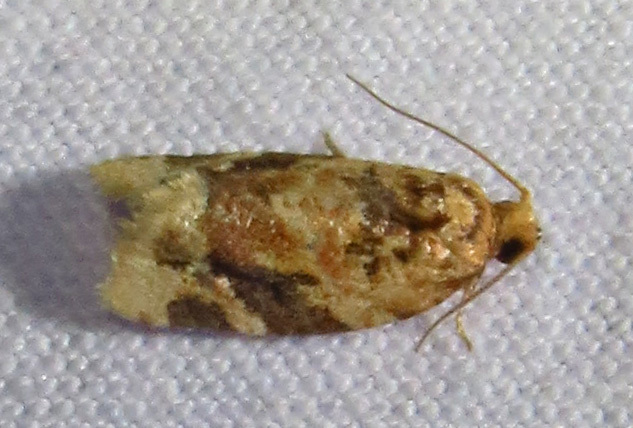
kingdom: Animalia
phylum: Arthropoda
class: Insecta
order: Lepidoptera
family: Tortricidae
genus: Argyrotaenia
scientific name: Argyrotaenia velutinana
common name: Red-banded leafroller moth
